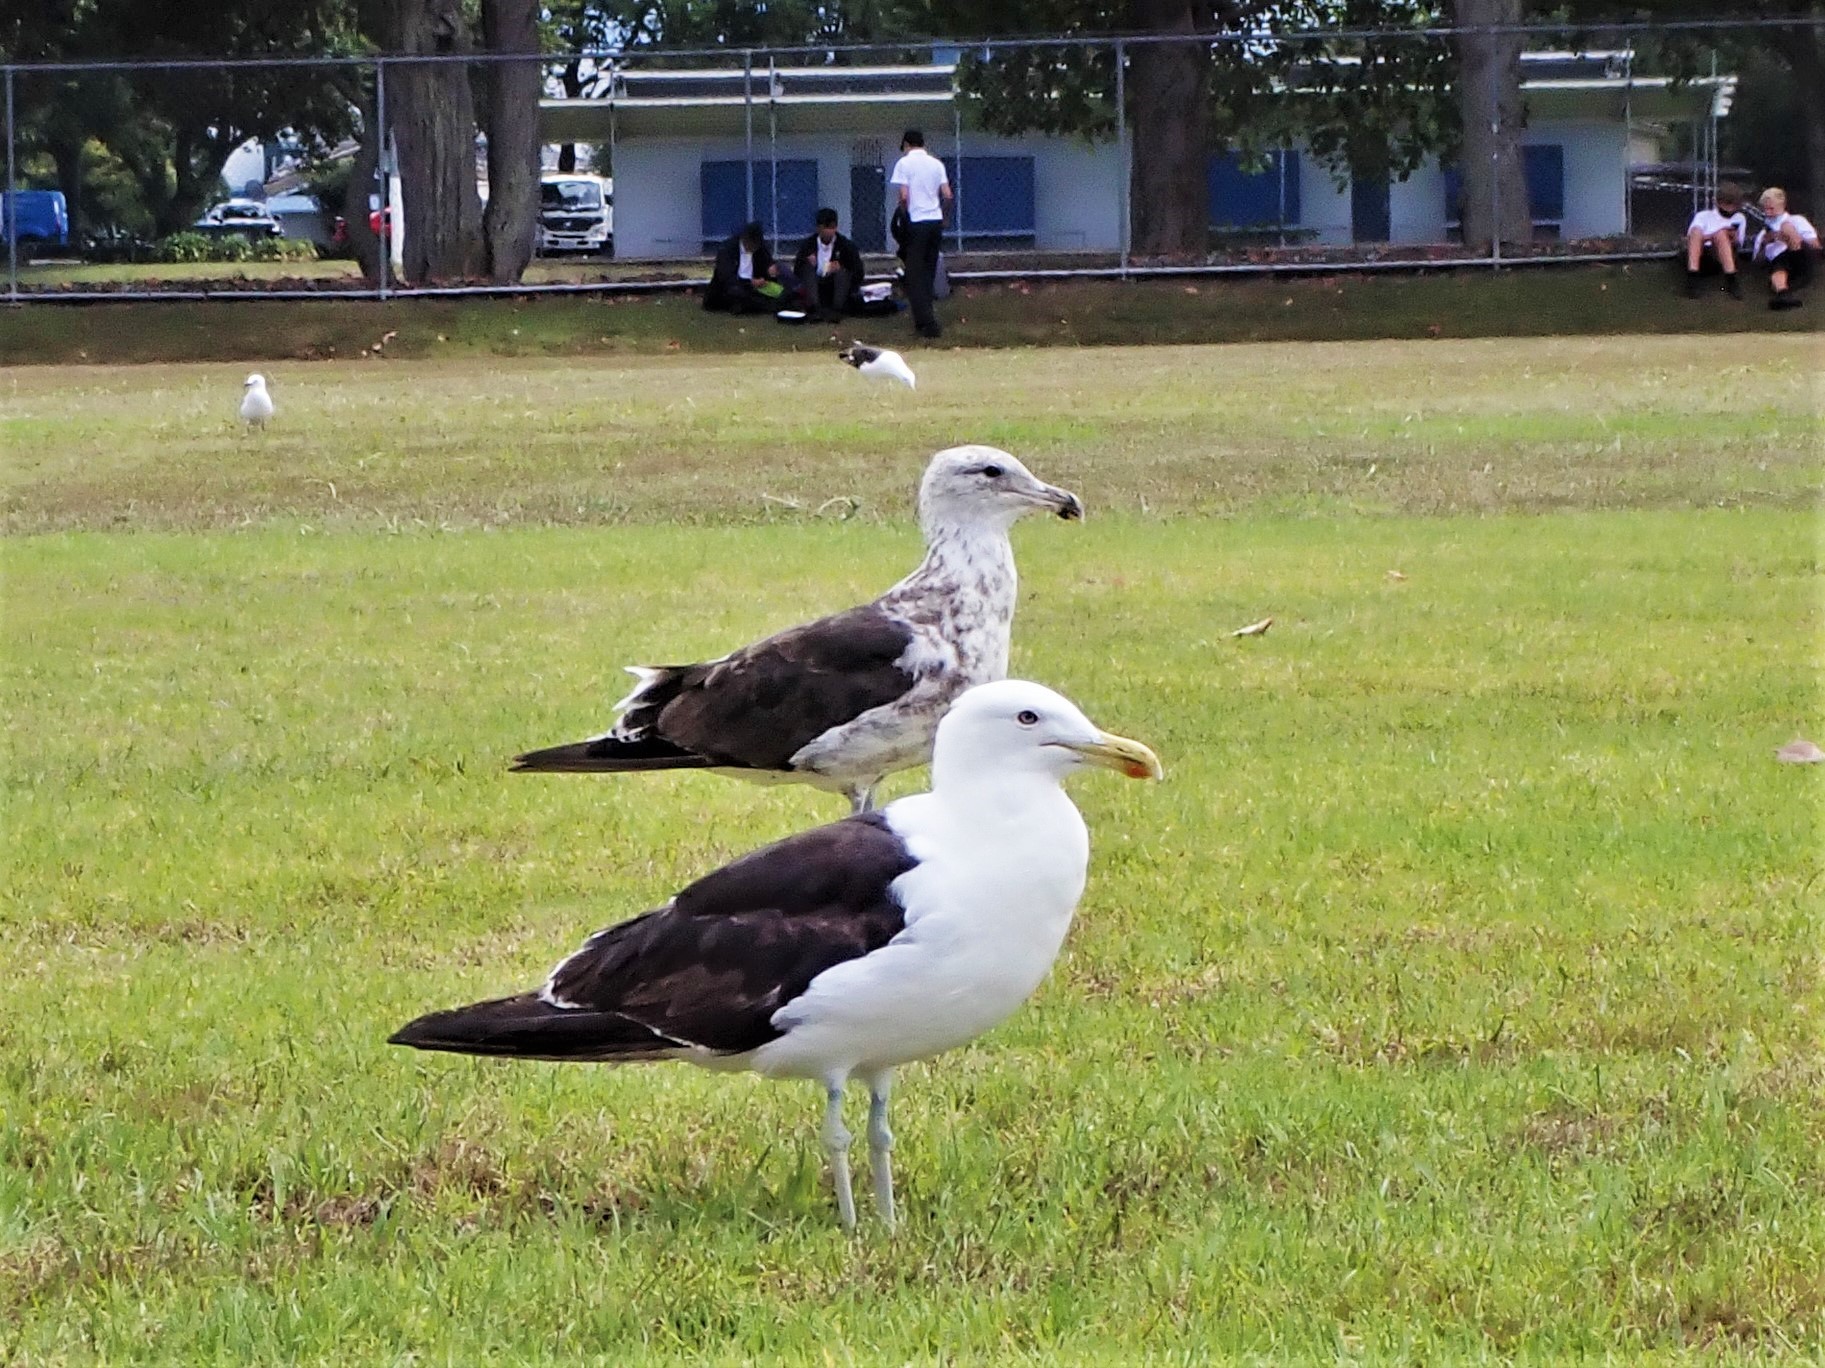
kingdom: Animalia
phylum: Chordata
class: Aves
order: Charadriiformes
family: Laridae
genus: Larus
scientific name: Larus dominicanus
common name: Kelp gull
